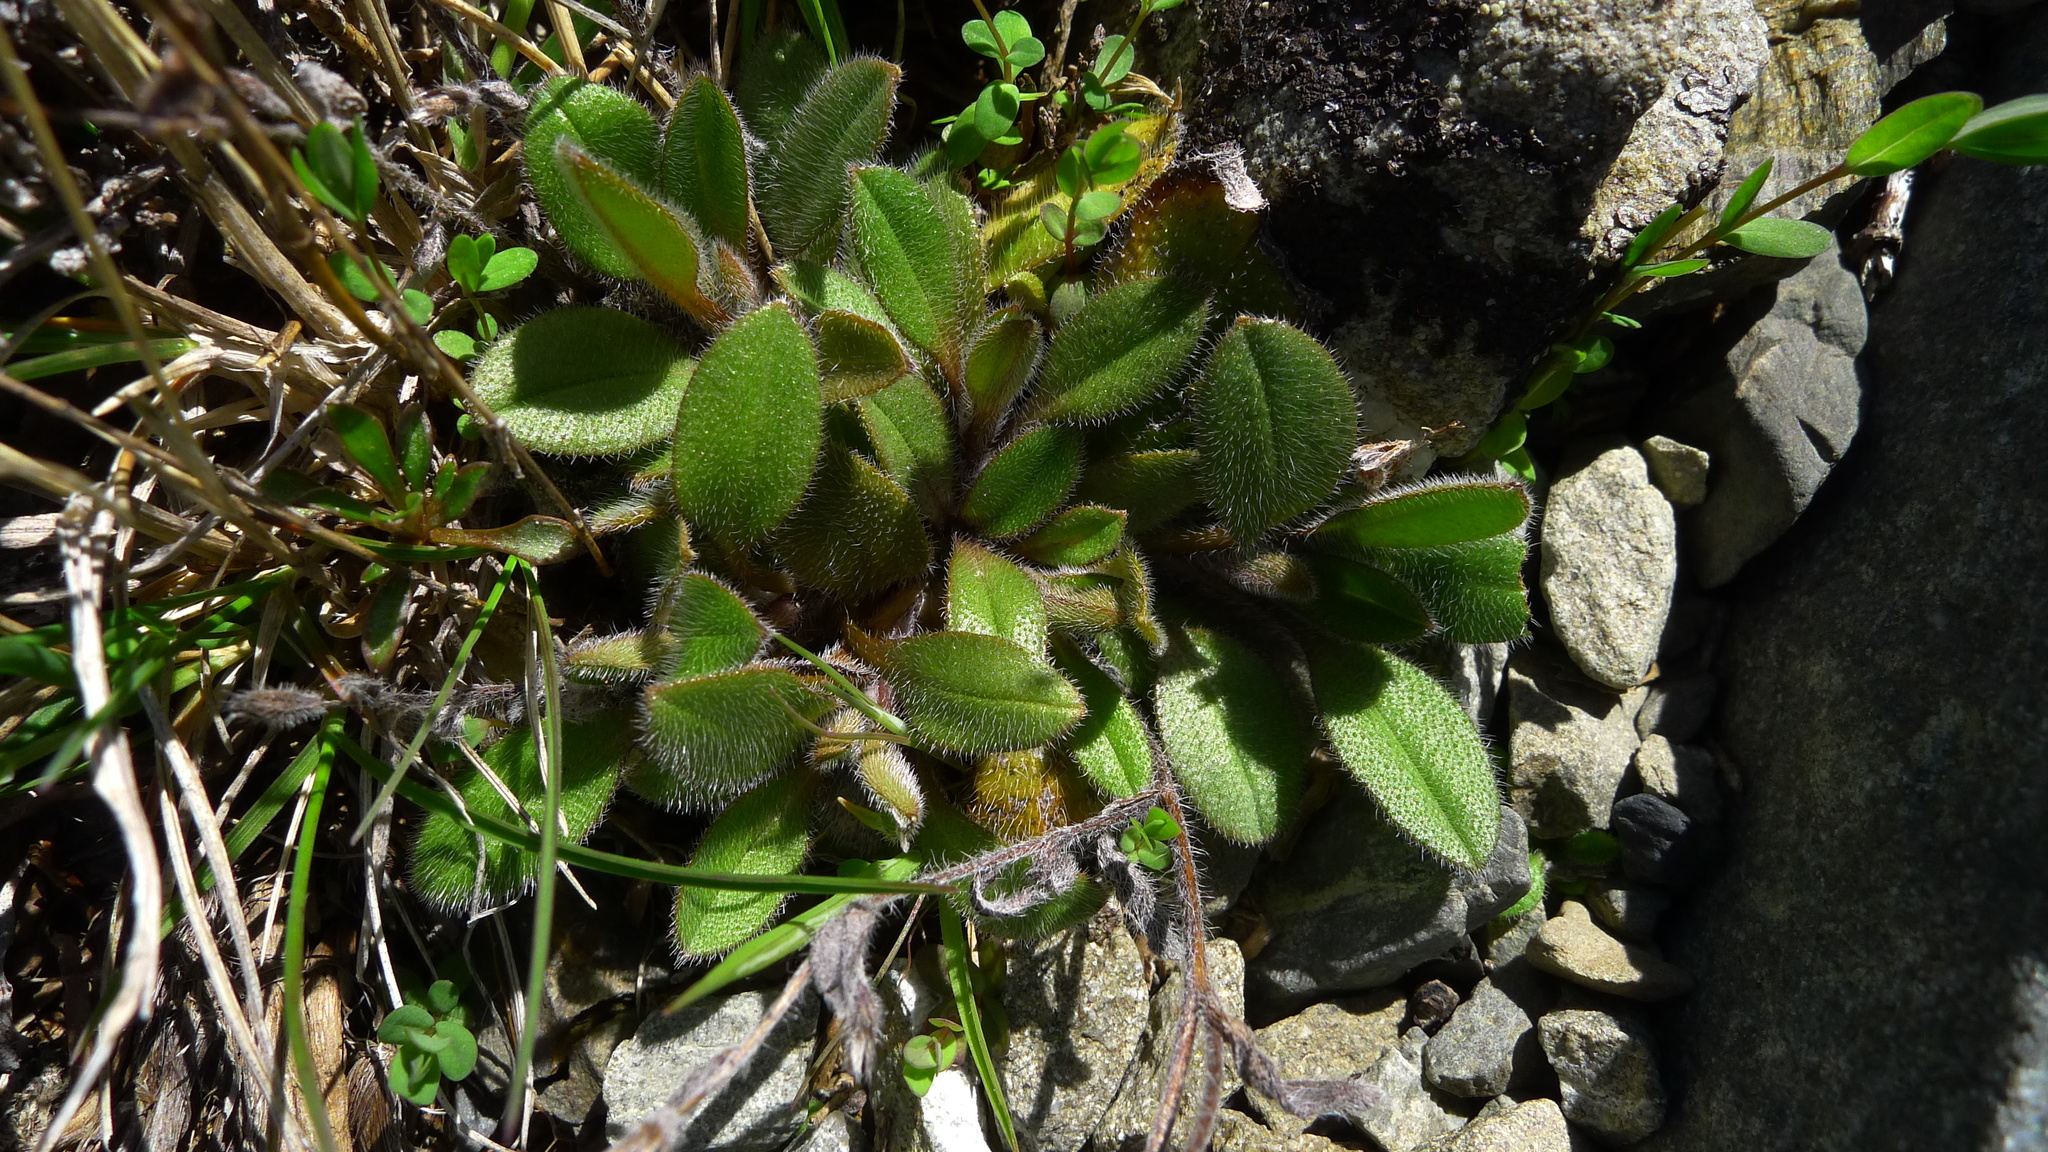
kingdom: Plantae
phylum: Tracheophyta
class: Magnoliopsida
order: Boraginales
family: Boraginaceae
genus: Myosotis
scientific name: Myosotis australis
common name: Australian forget-me-not
